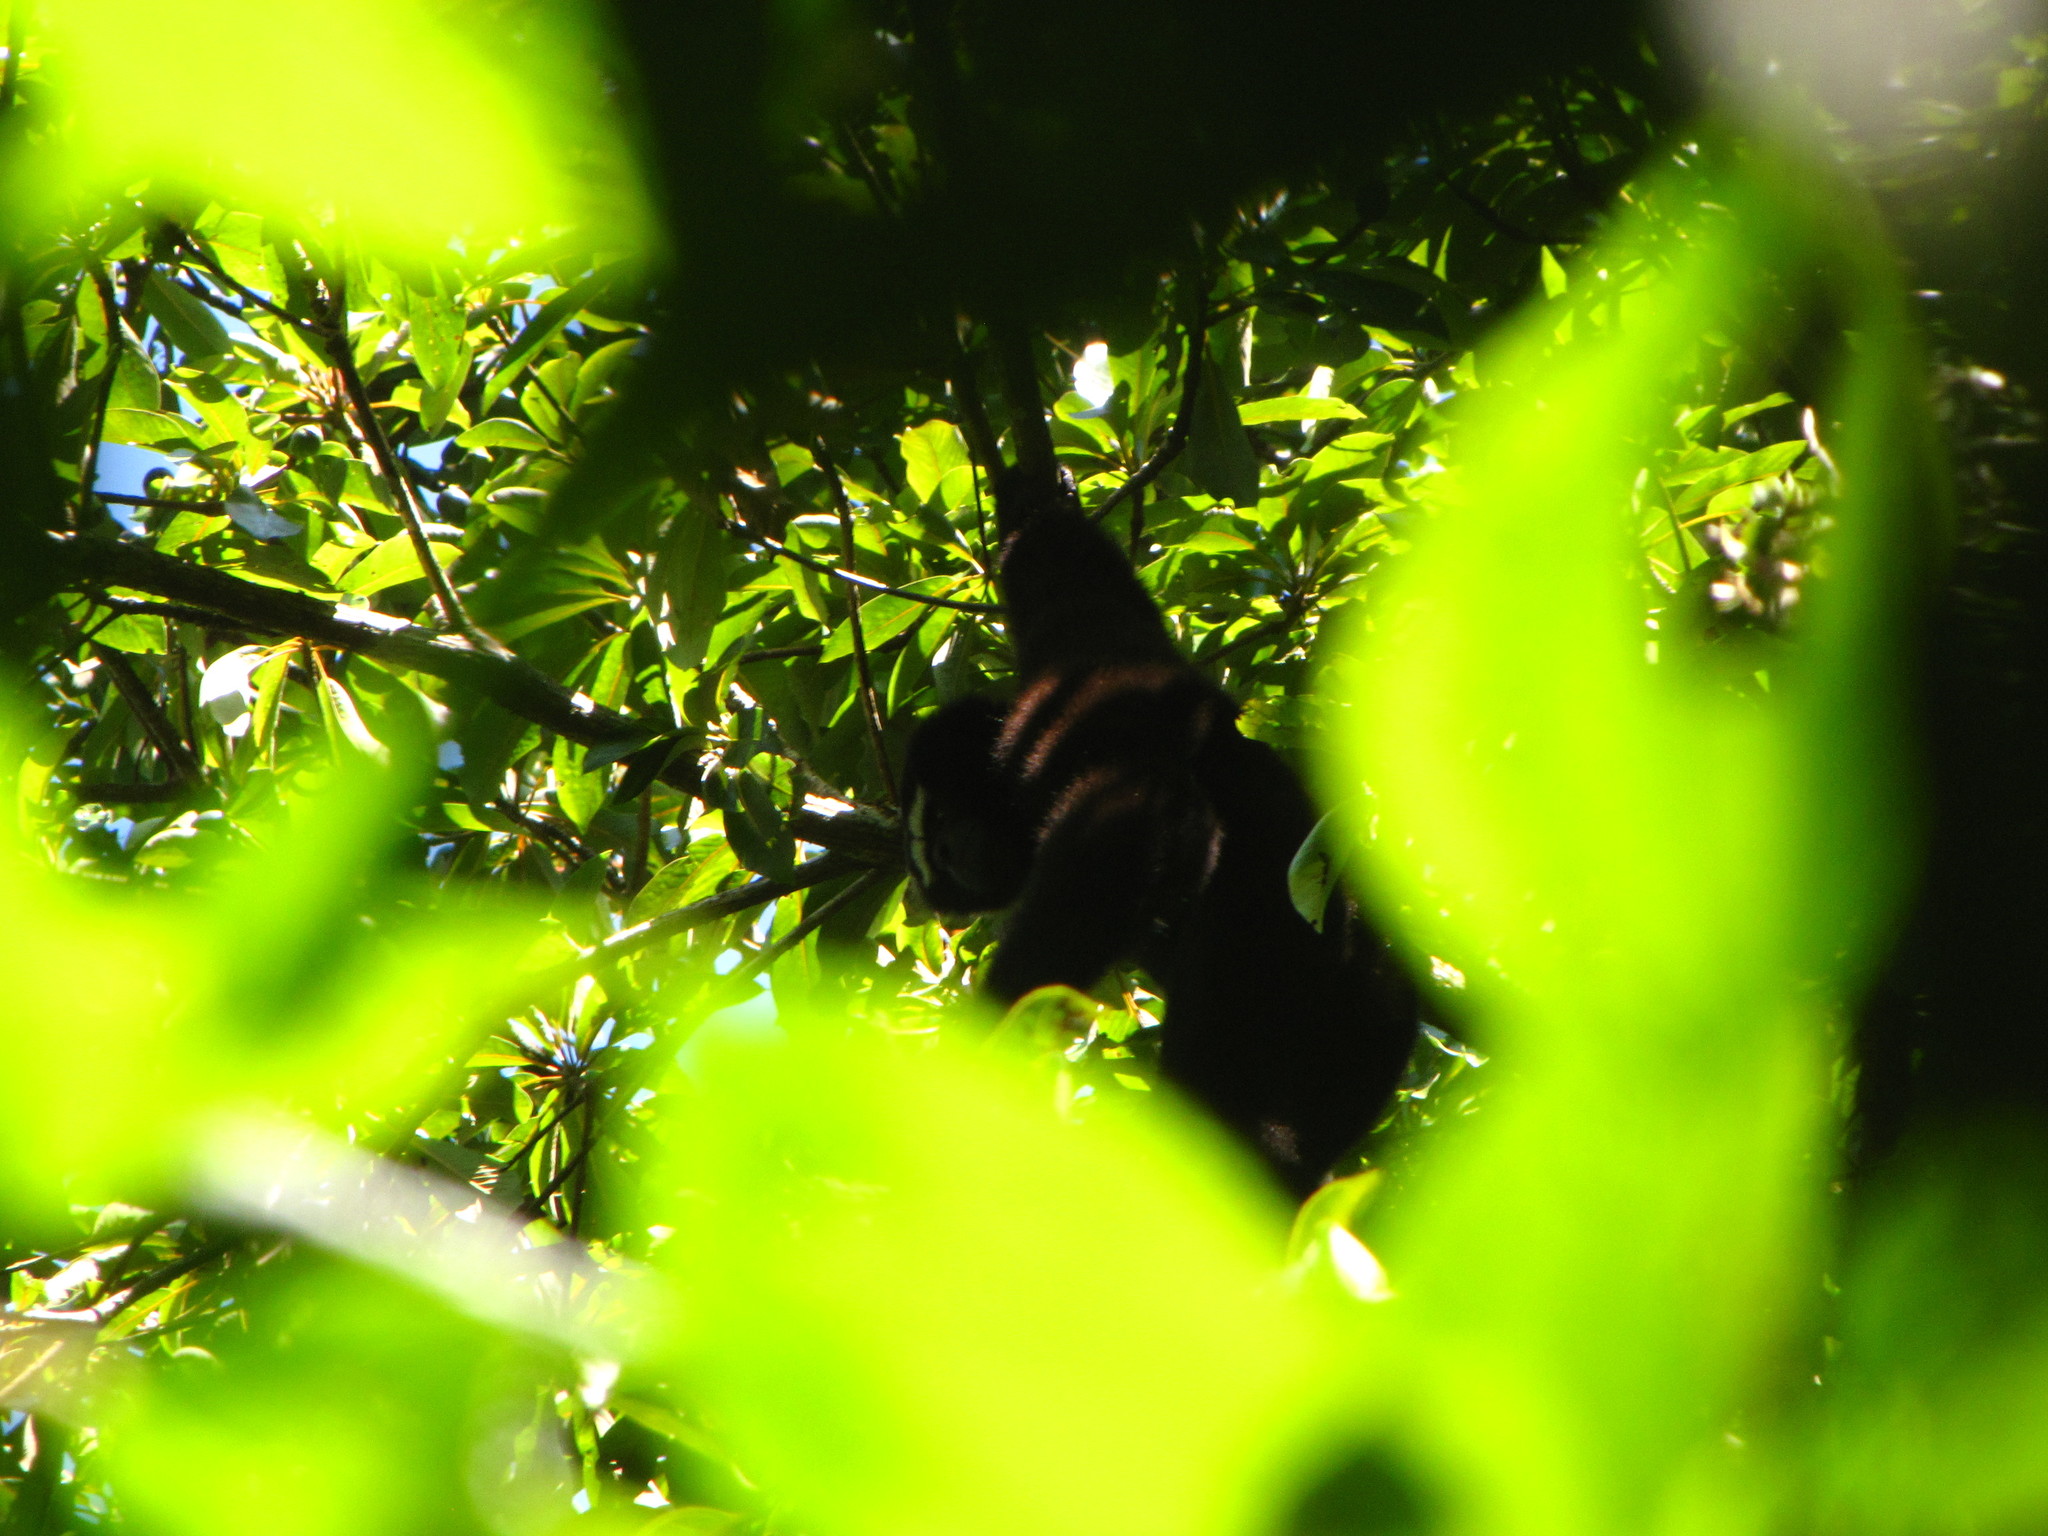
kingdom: Animalia
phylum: Chordata
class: Mammalia
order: Primates
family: Hylobatidae
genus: Hoolock
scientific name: Hoolock hoolock
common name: Western hoolock gibbon
